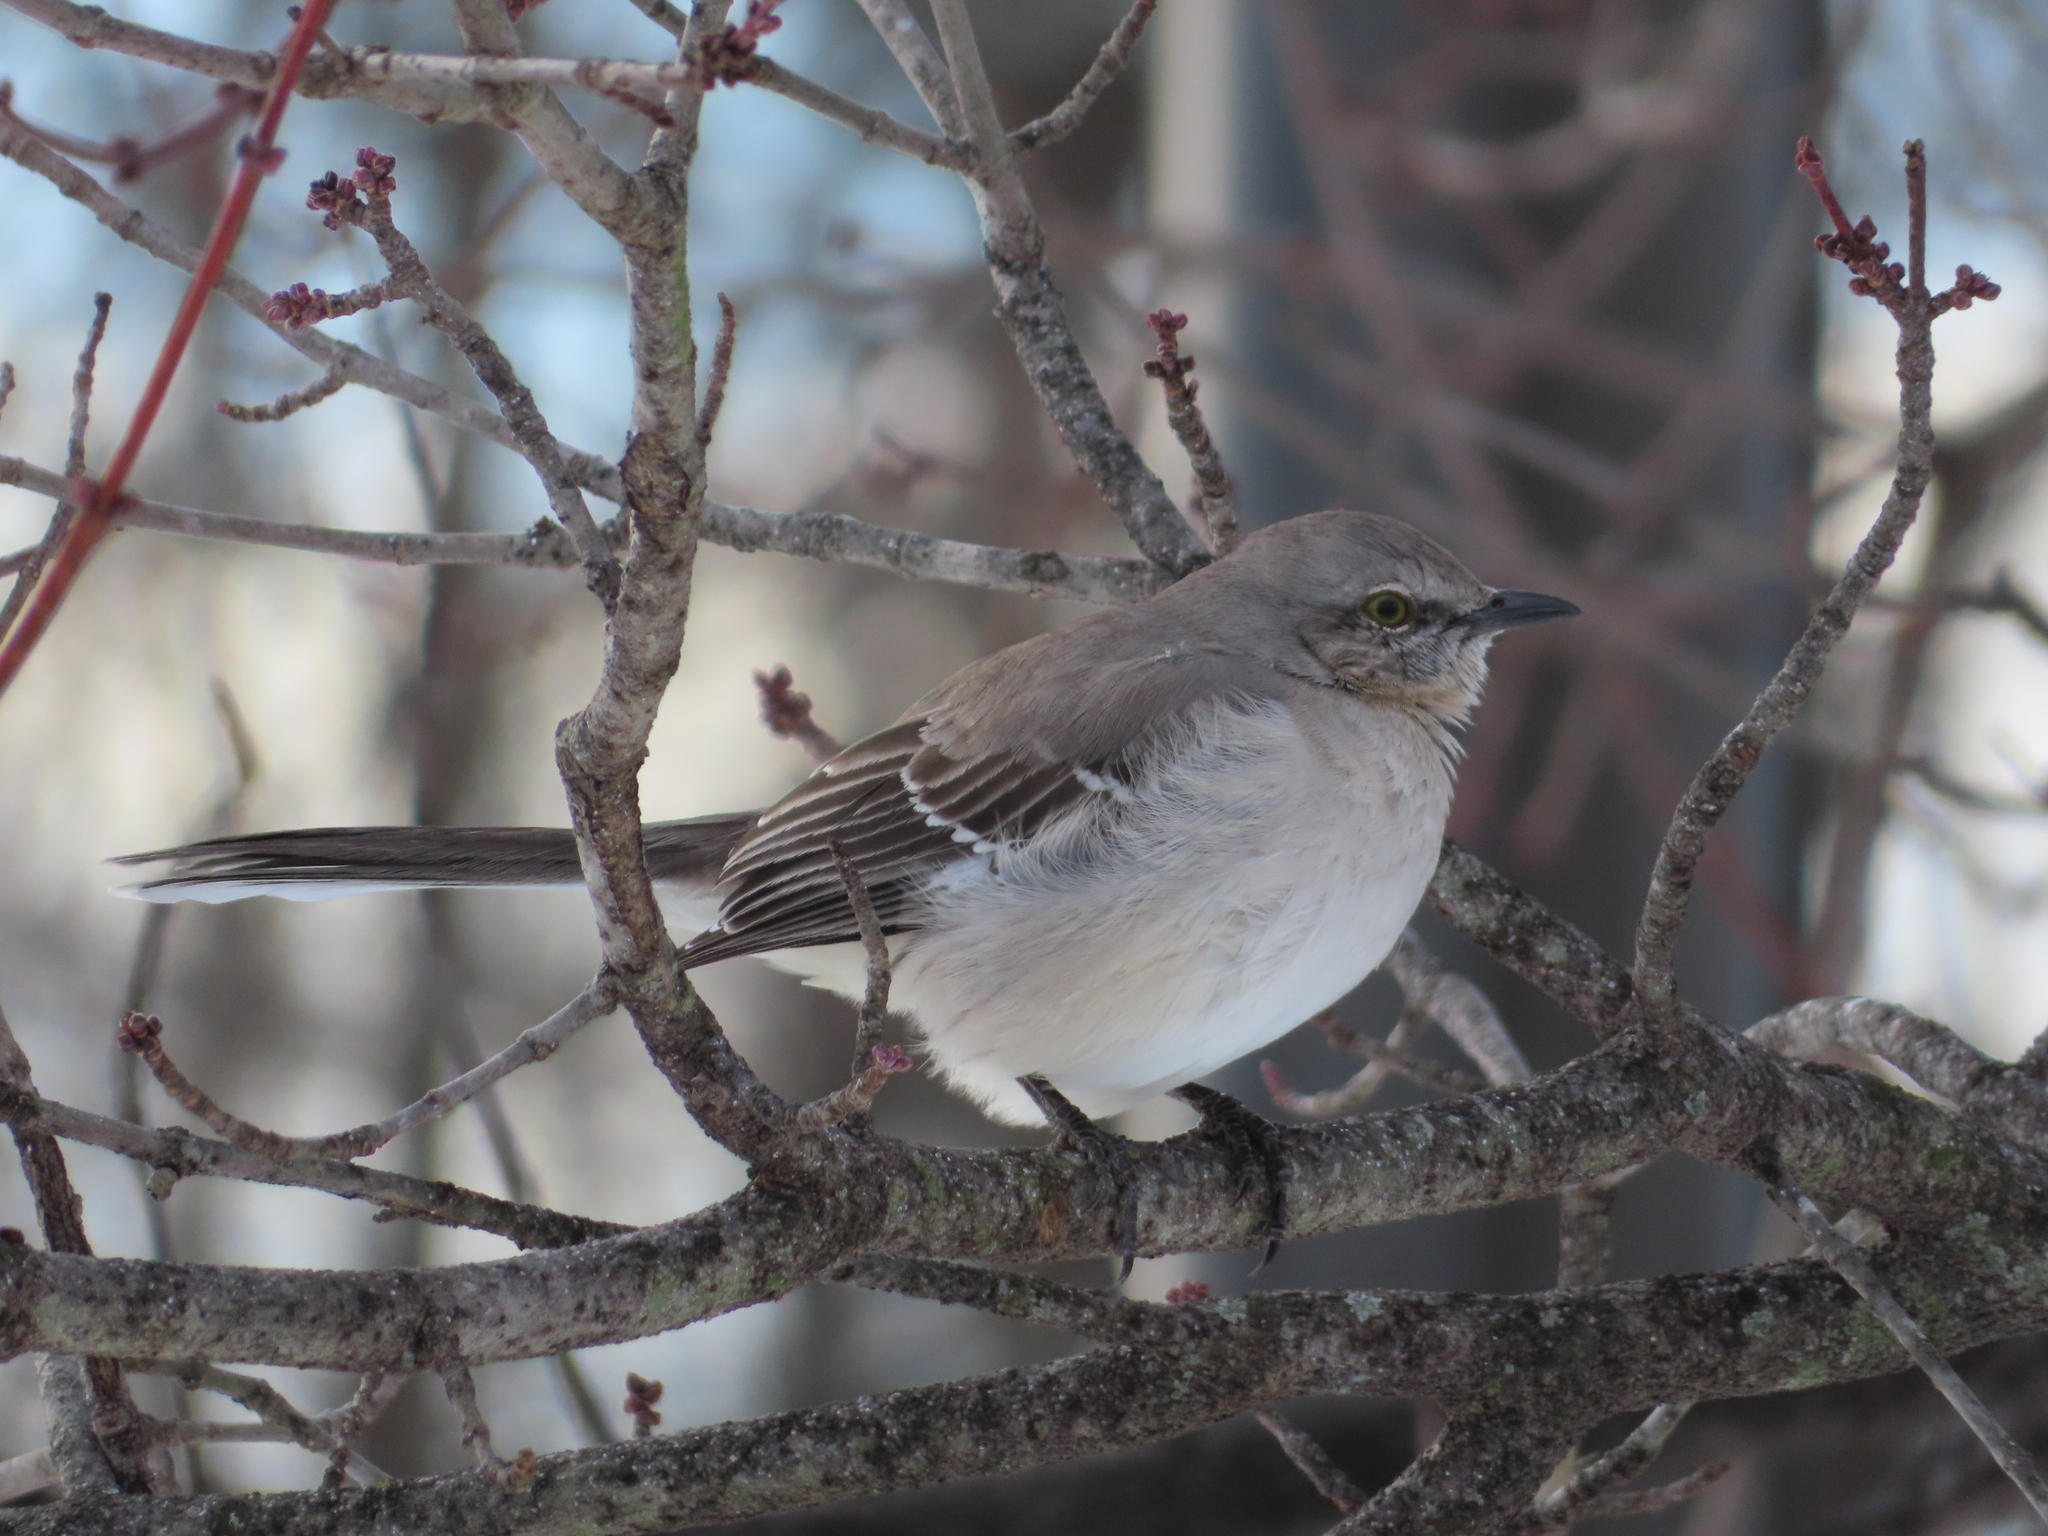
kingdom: Animalia
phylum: Chordata
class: Aves
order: Passeriformes
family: Mimidae
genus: Mimus
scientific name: Mimus polyglottos
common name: Northern mockingbird
